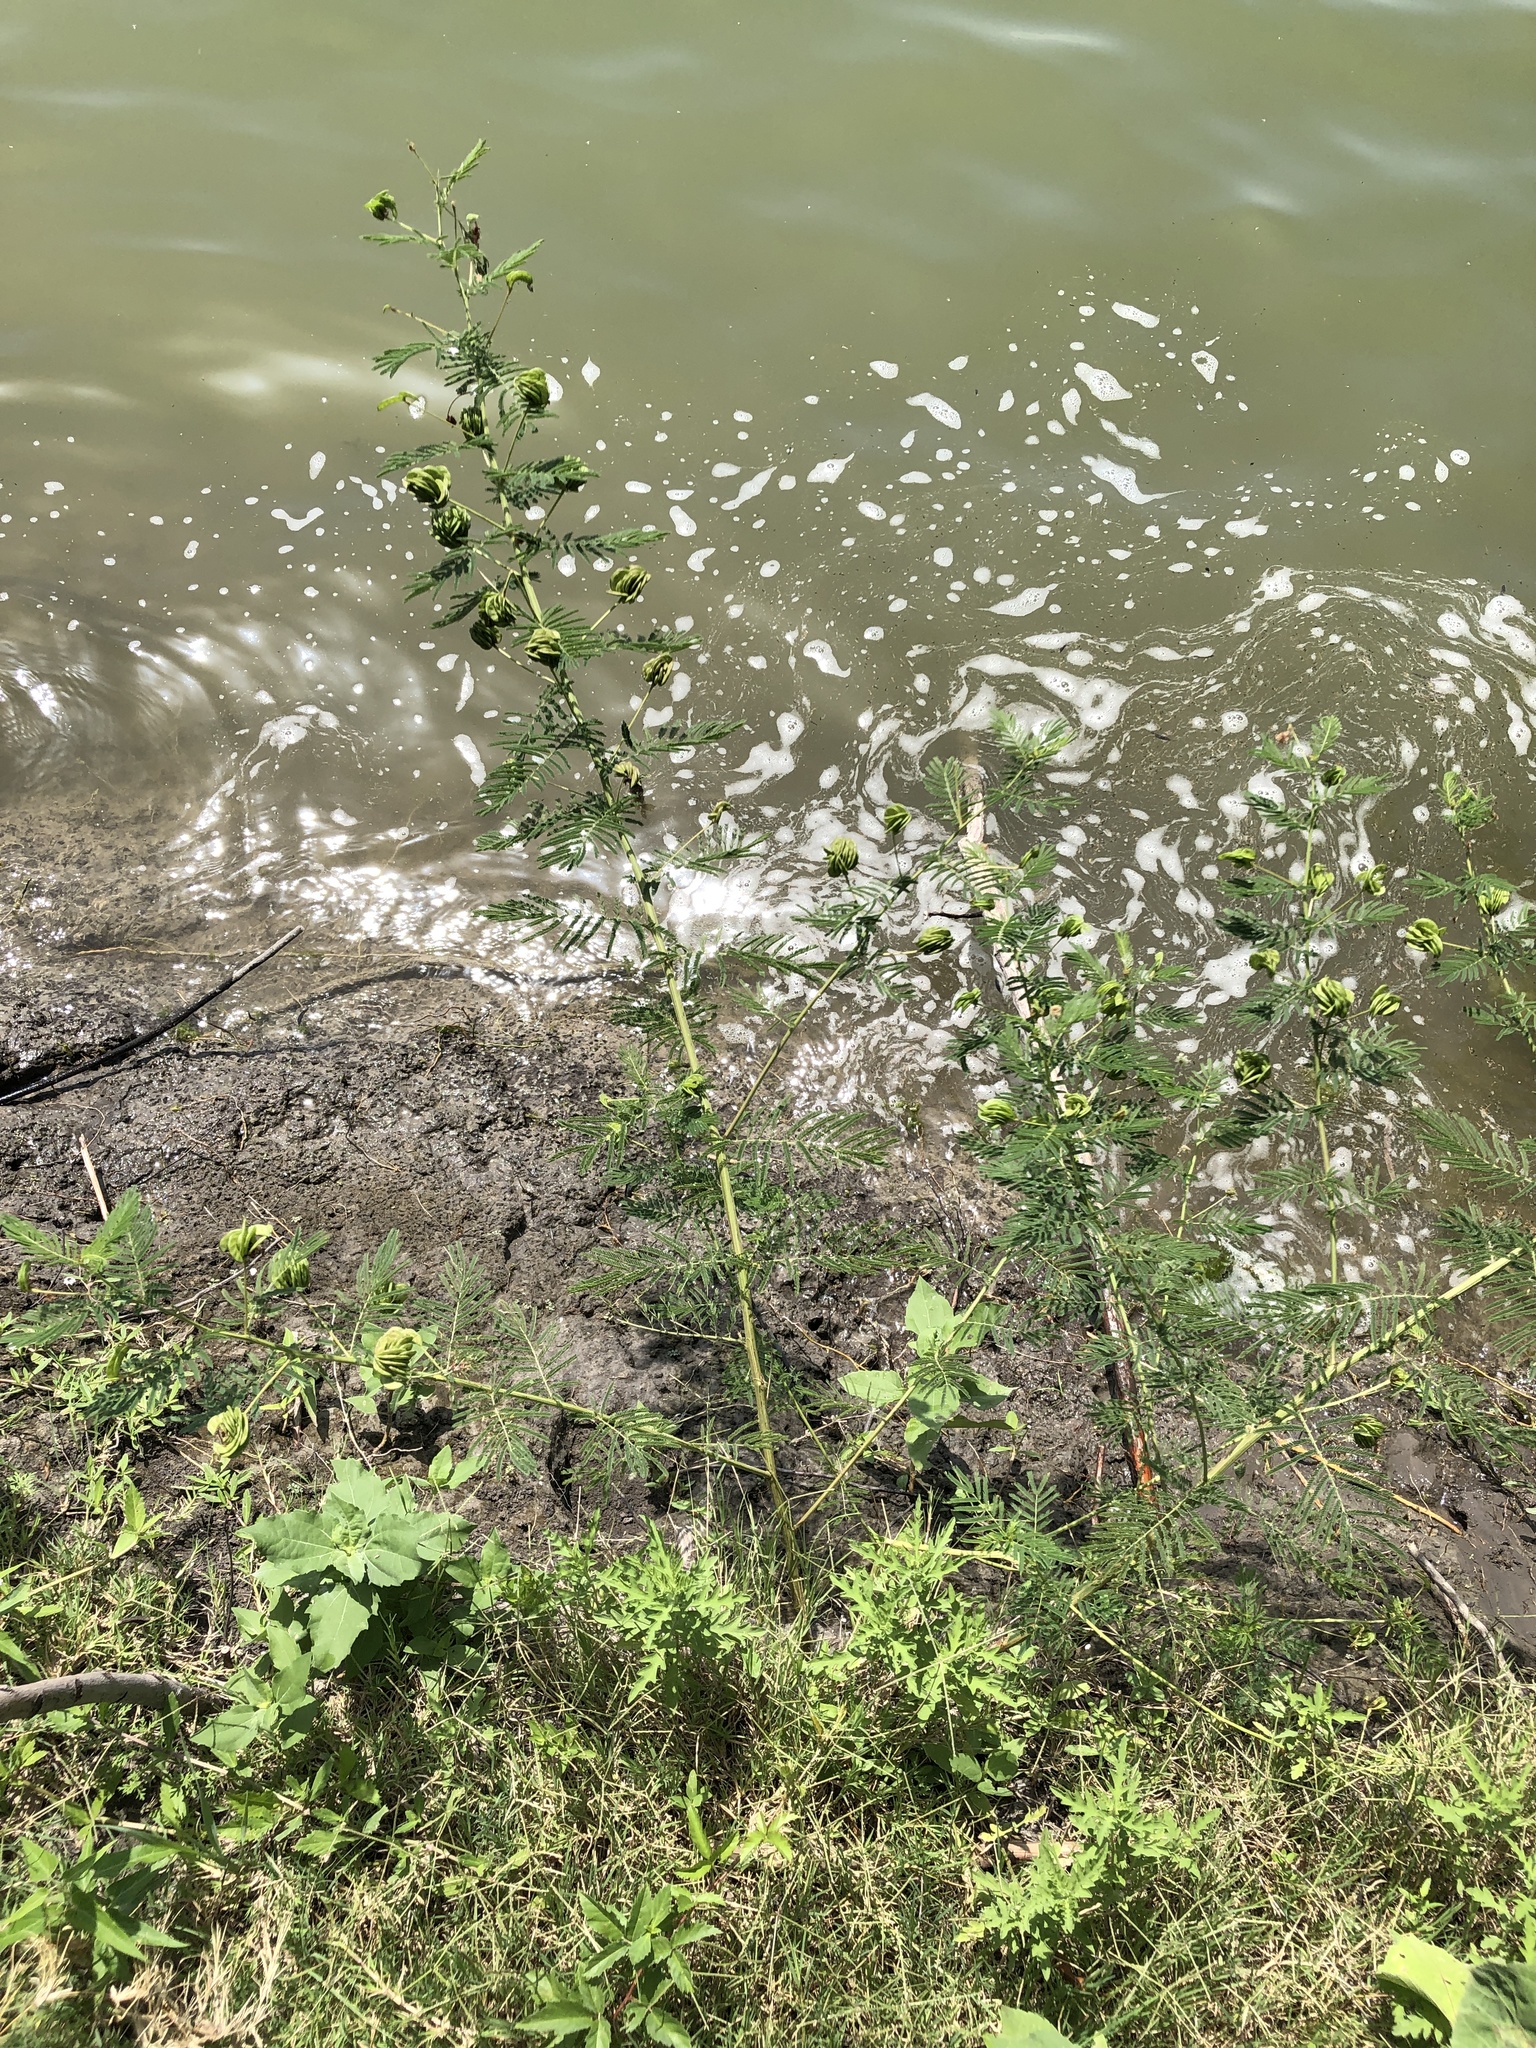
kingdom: Plantae
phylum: Tracheophyta
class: Magnoliopsida
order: Fabales
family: Fabaceae
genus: Desmanthus
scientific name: Desmanthus illinoensis
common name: Illinois bundle-flower
